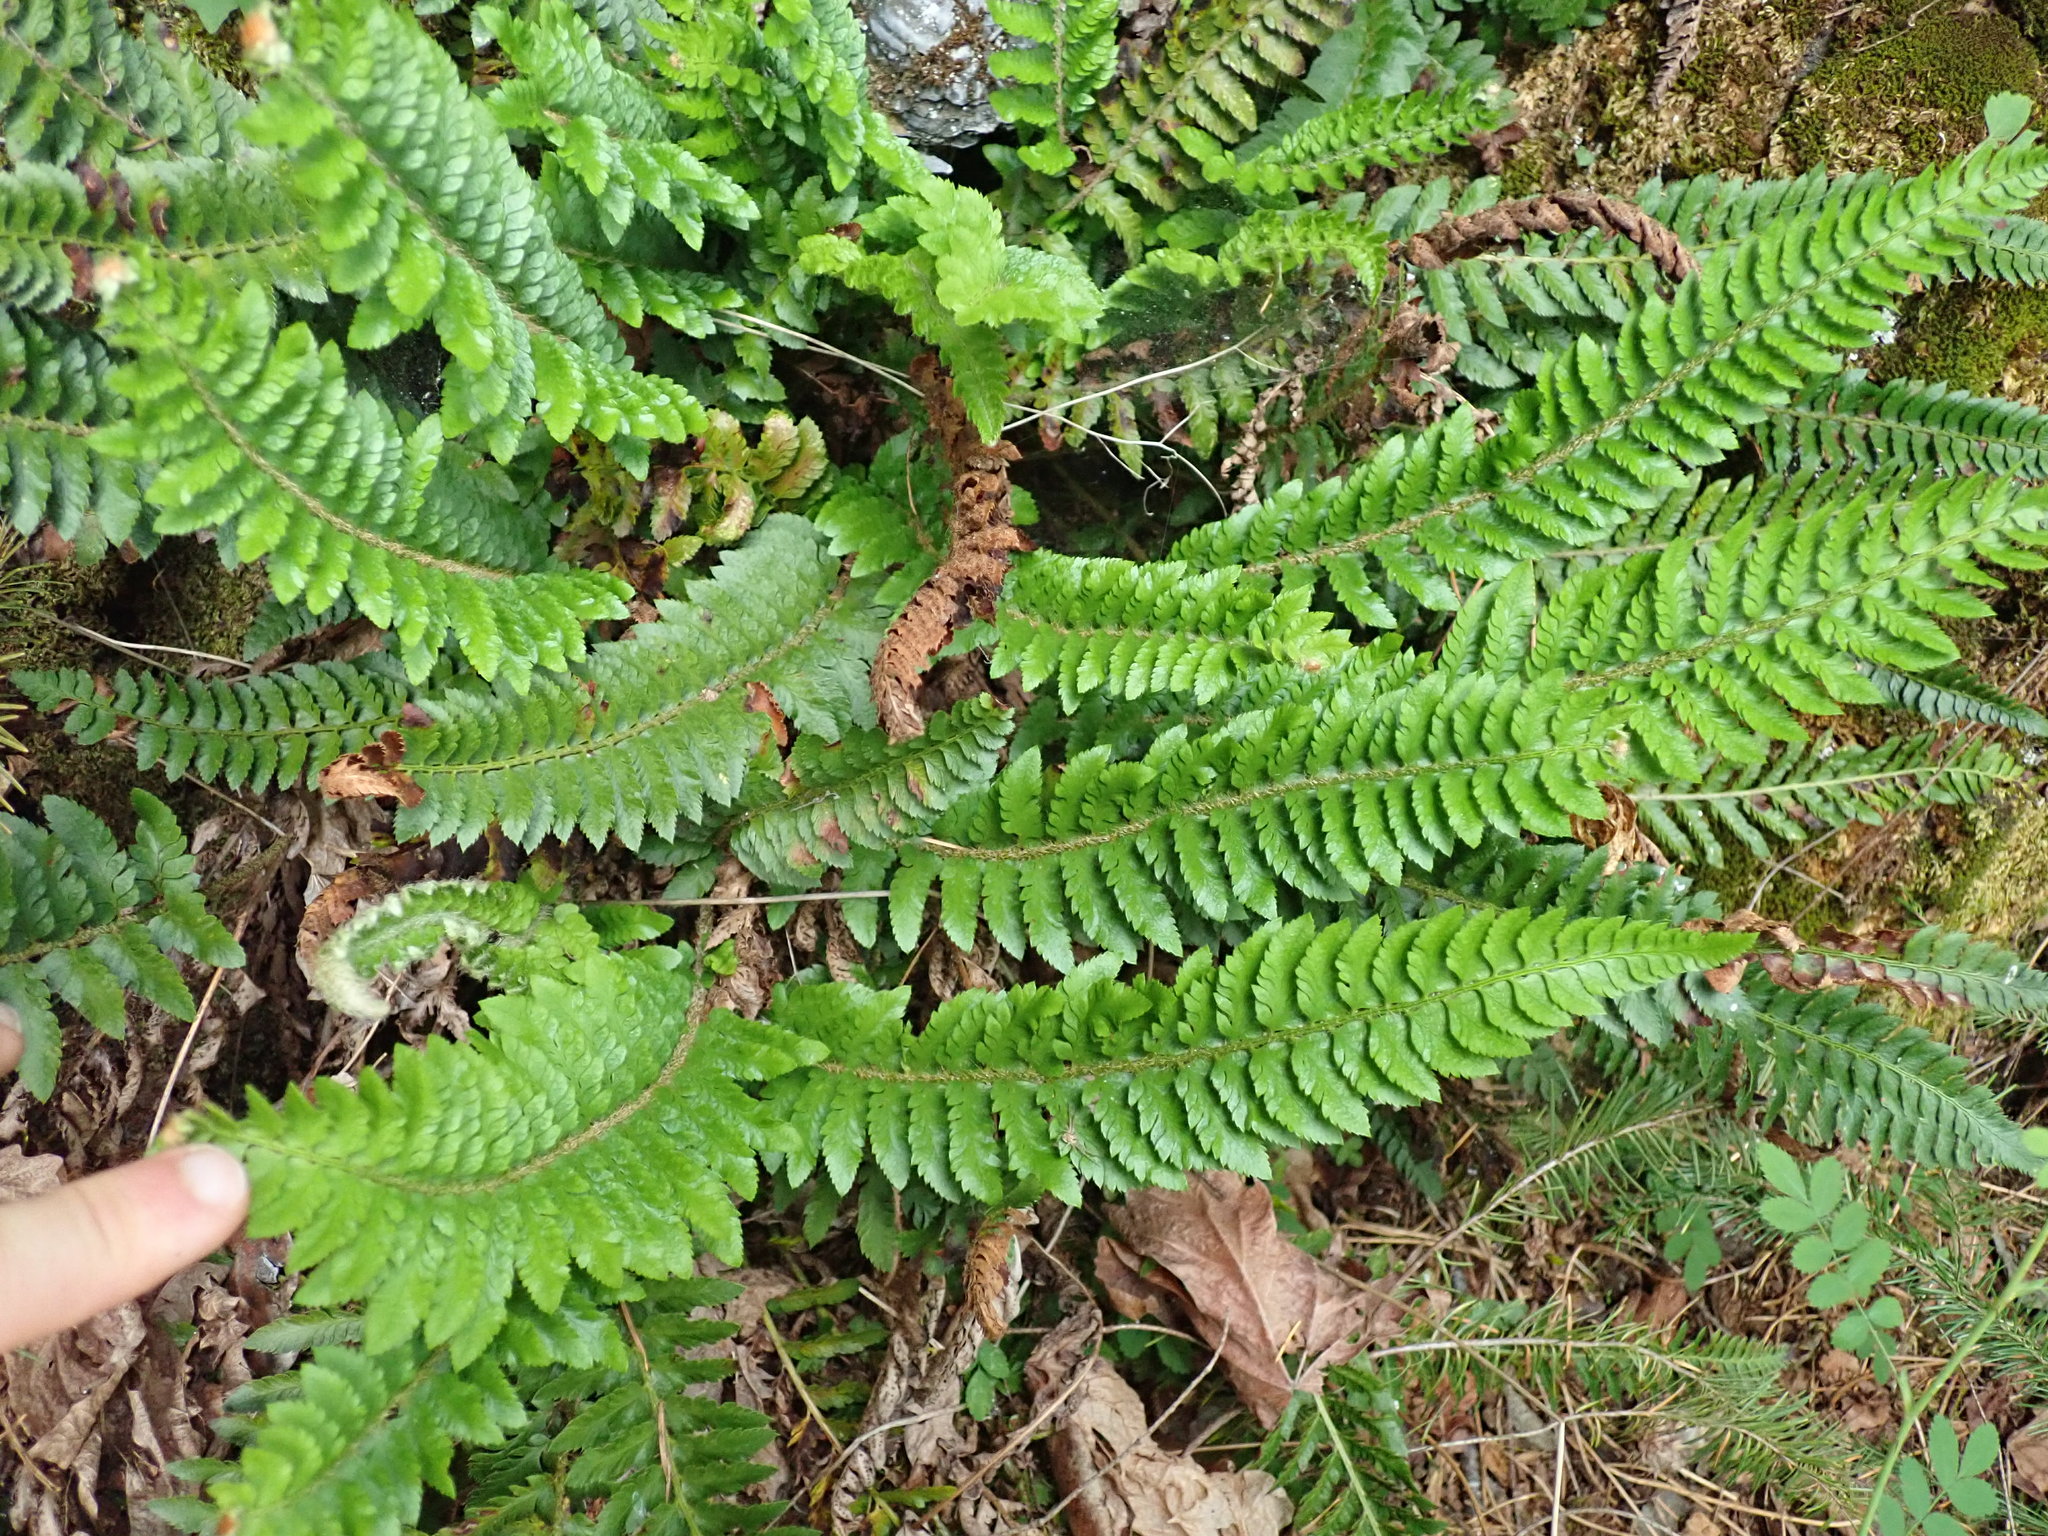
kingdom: Plantae
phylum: Tracheophyta
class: Polypodiopsida
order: Polypodiales
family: Dryopteridaceae
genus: Polystichum
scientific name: Polystichum californicum
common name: California sword fern
